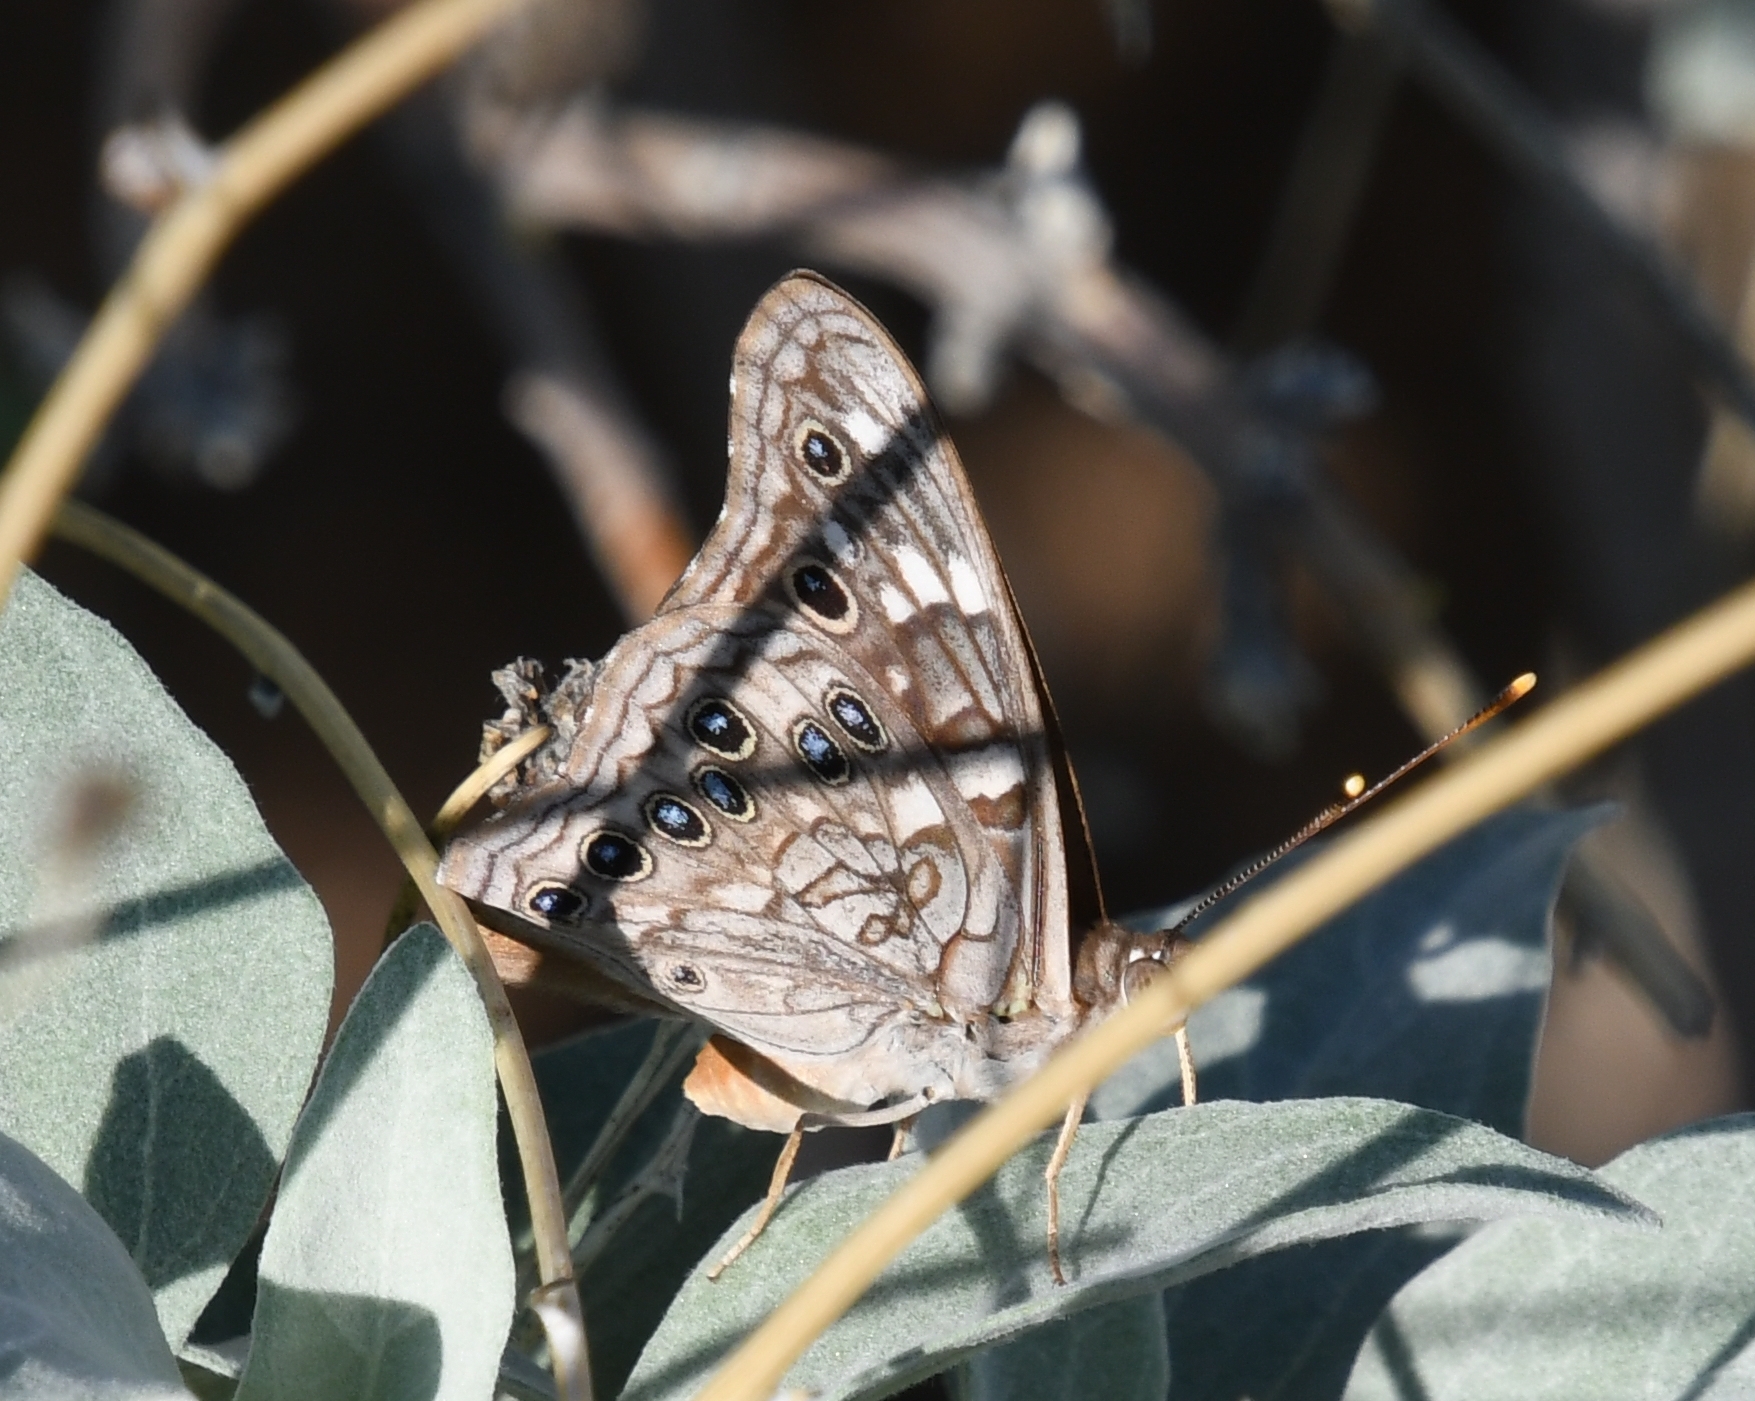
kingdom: Animalia
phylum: Arthropoda
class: Insecta
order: Lepidoptera
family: Nymphalidae
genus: Asterocampa
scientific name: Asterocampa leilia
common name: Empress leilia
